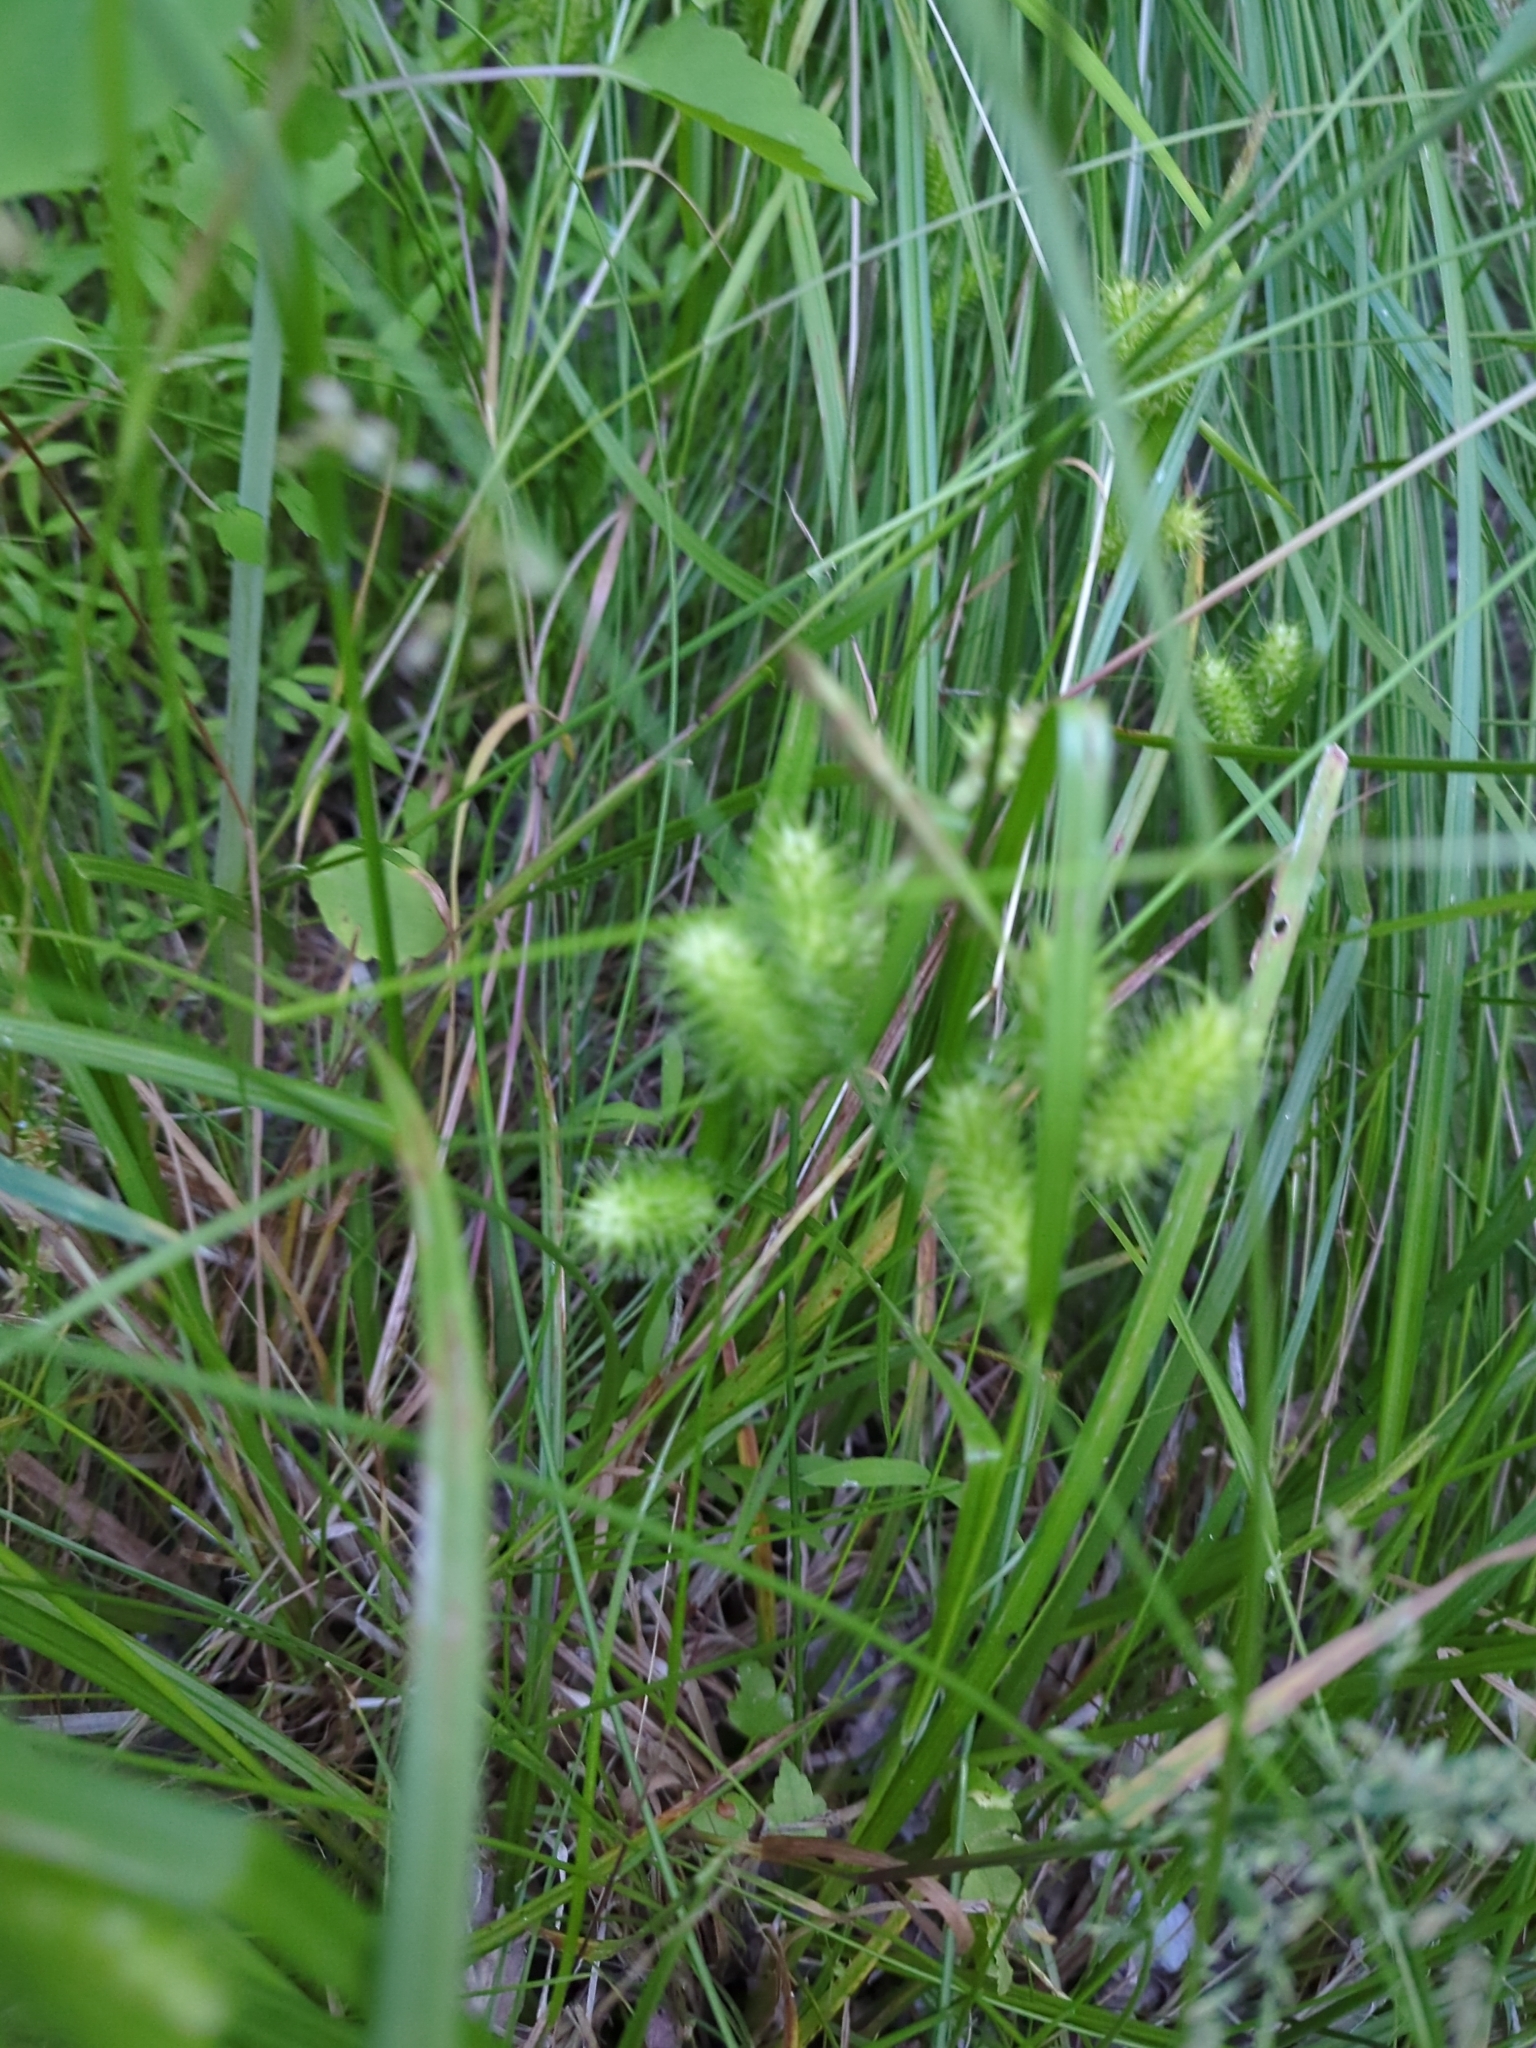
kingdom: Plantae
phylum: Tracheophyta
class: Liliopsida
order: Poales
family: Cyperaceae
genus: Carex
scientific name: Carex lurida
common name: Sallow sedge
